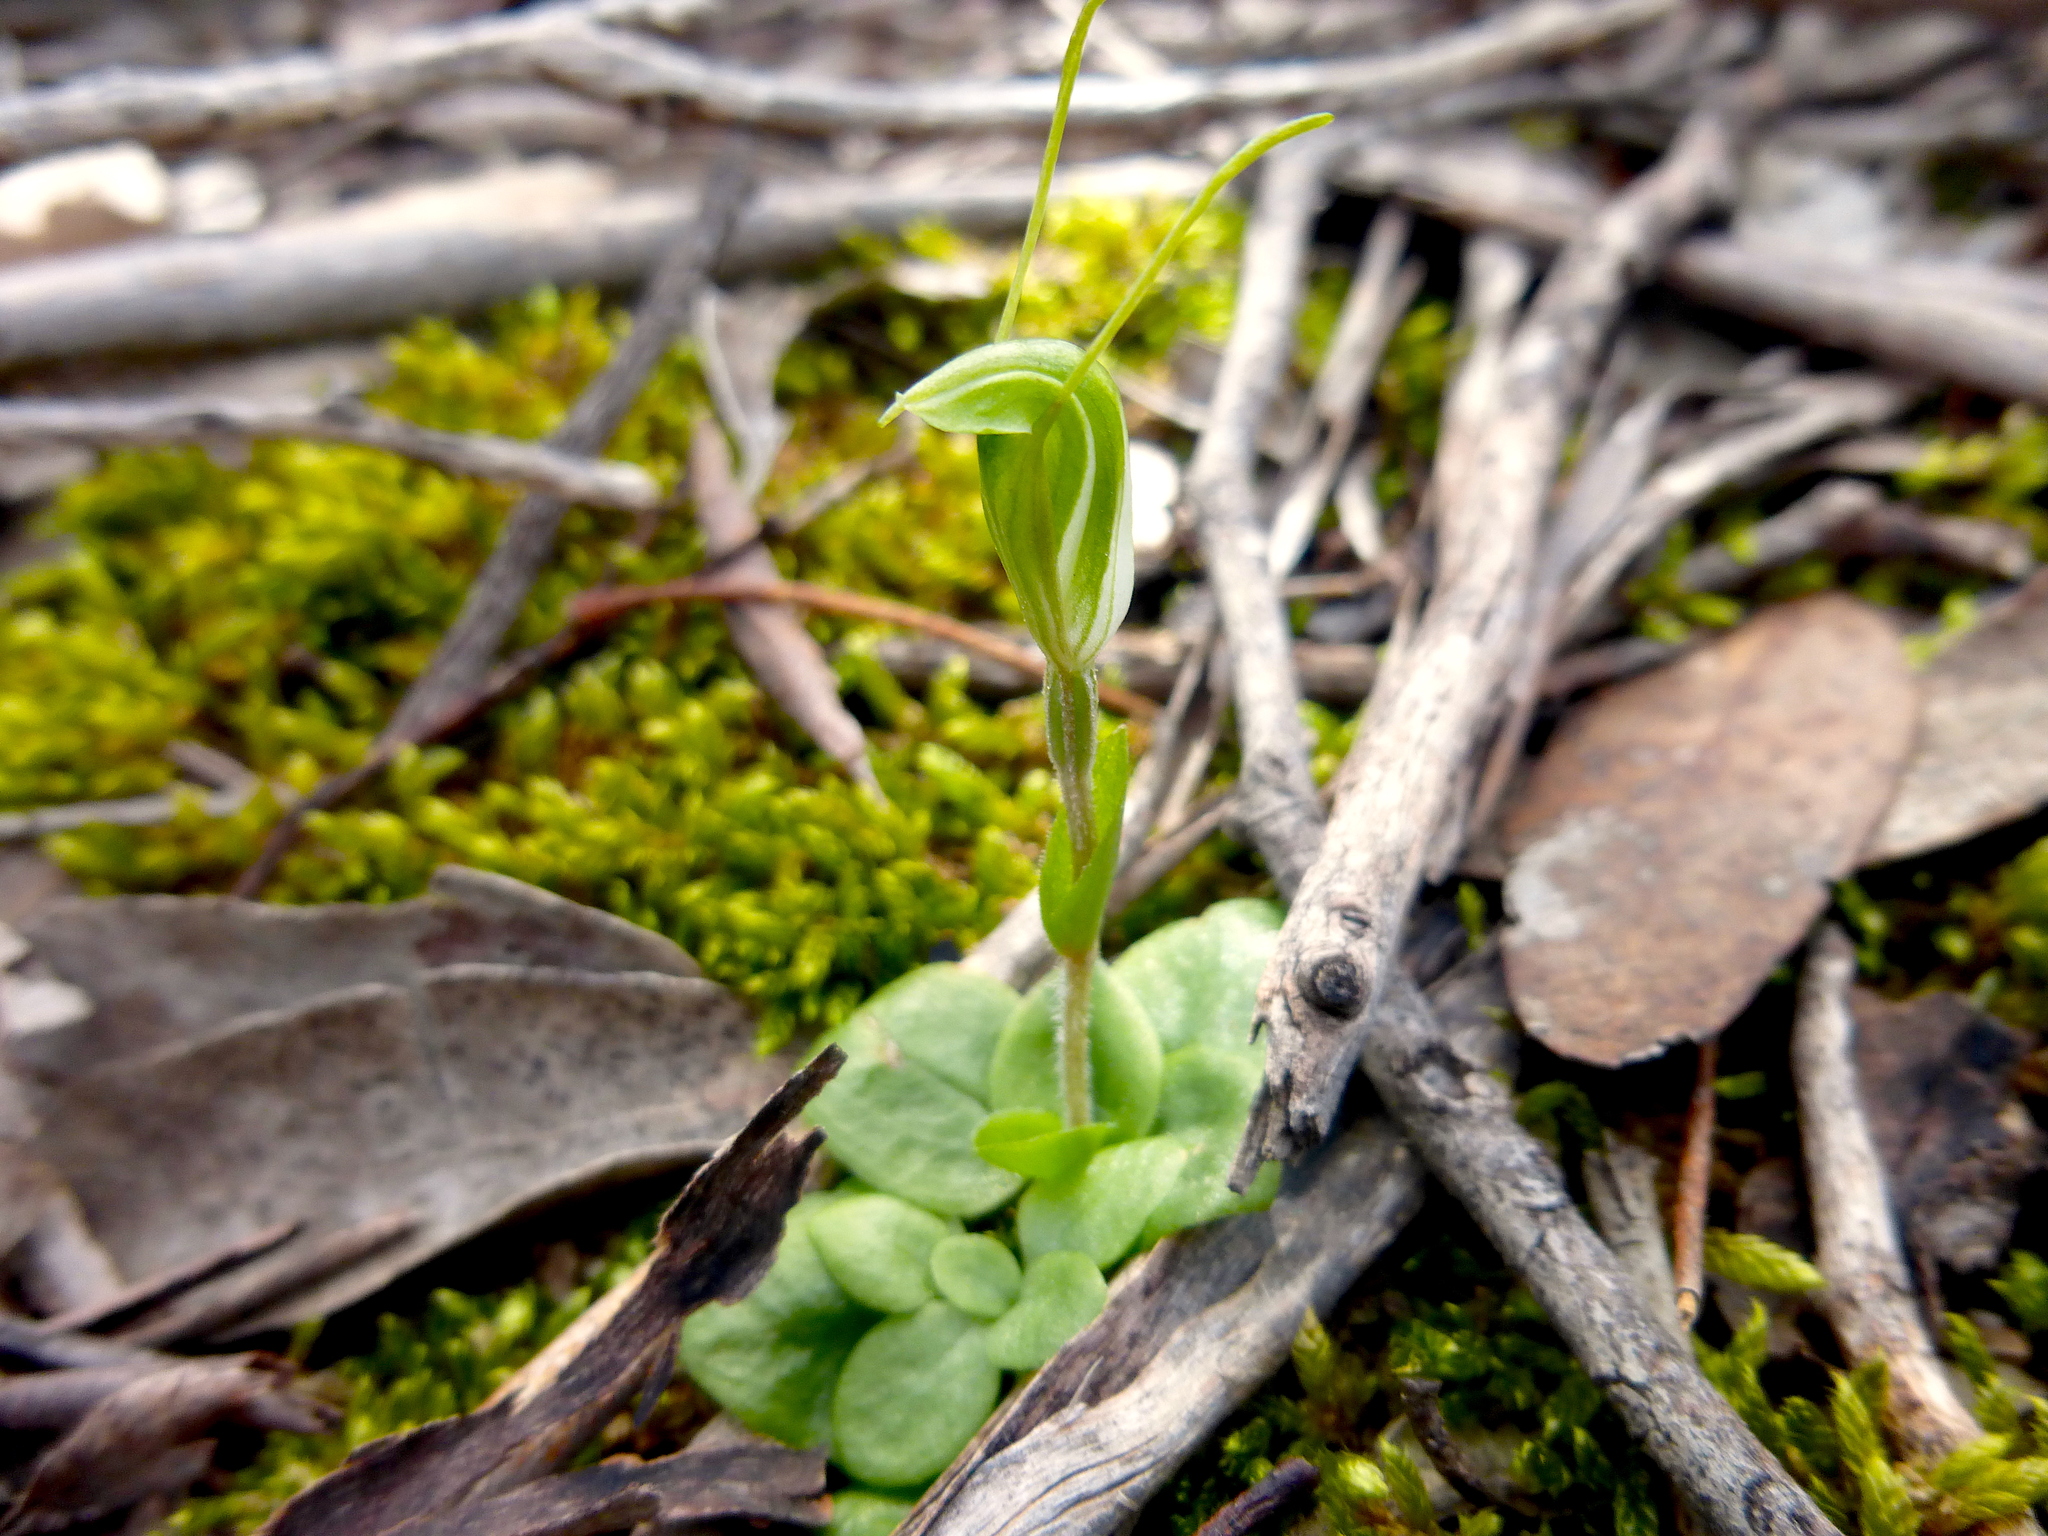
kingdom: Plantae
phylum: Tracheophyta
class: Liliopsida
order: Asparagales
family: Orchidaceae
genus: Pterostylis
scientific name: Pterostylis nana
